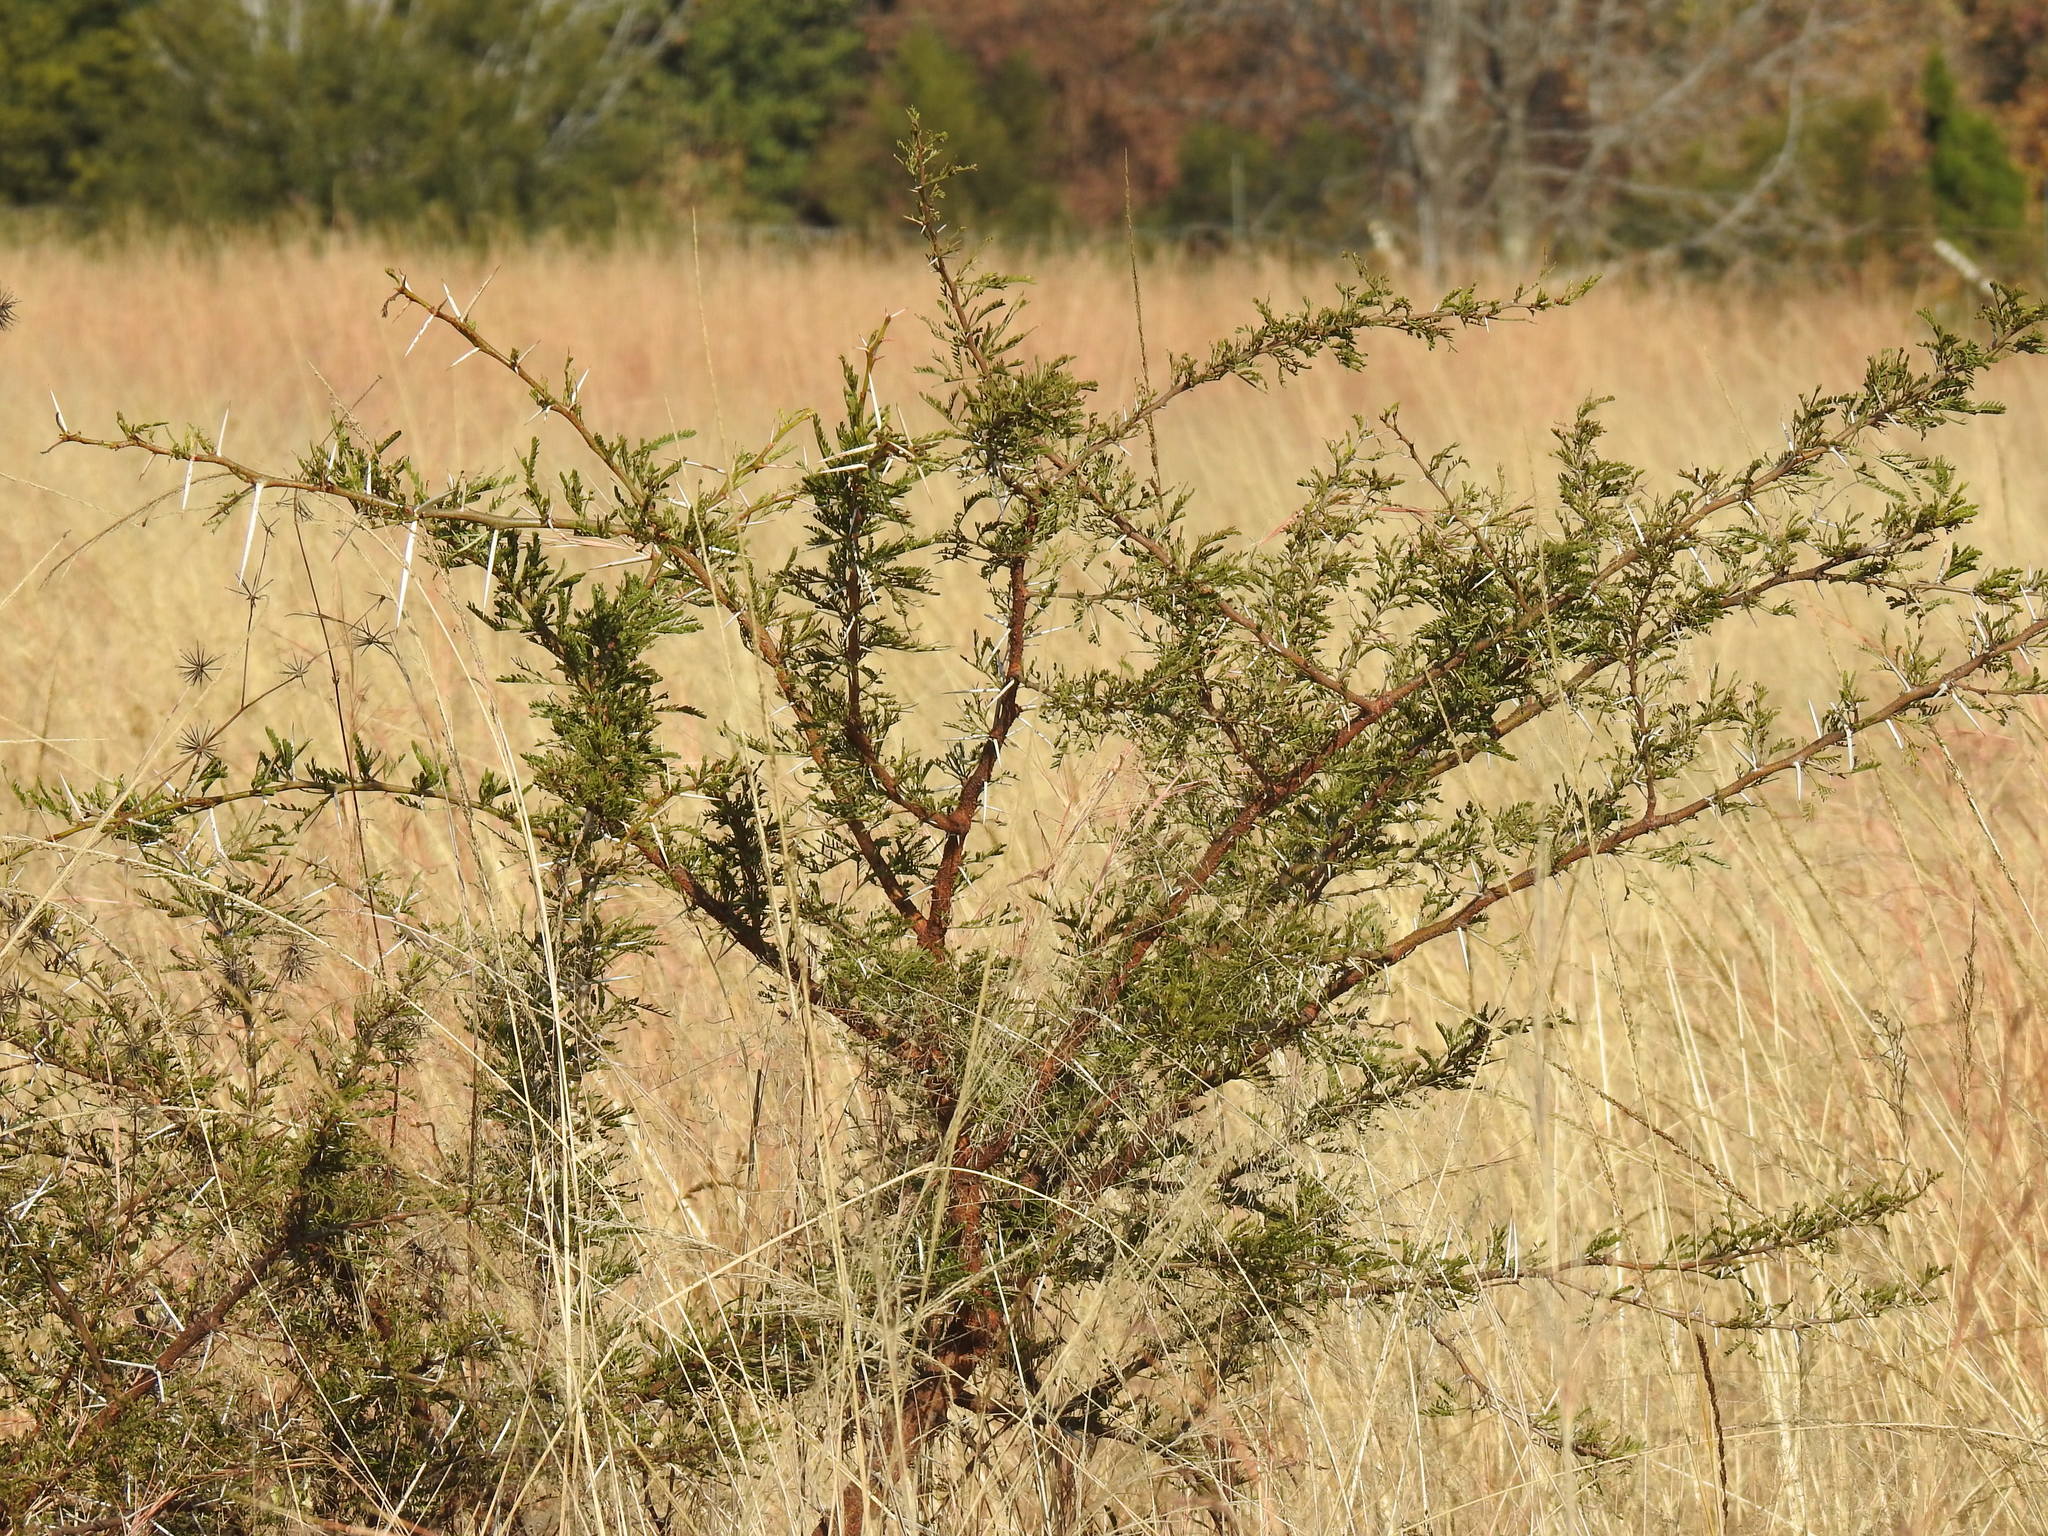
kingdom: Plantae
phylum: Tracheophyta
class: Magnoliopsida
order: Fabales
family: Fabaceae
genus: Vachellia
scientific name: Vachellia karroo
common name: Sweet thorn
